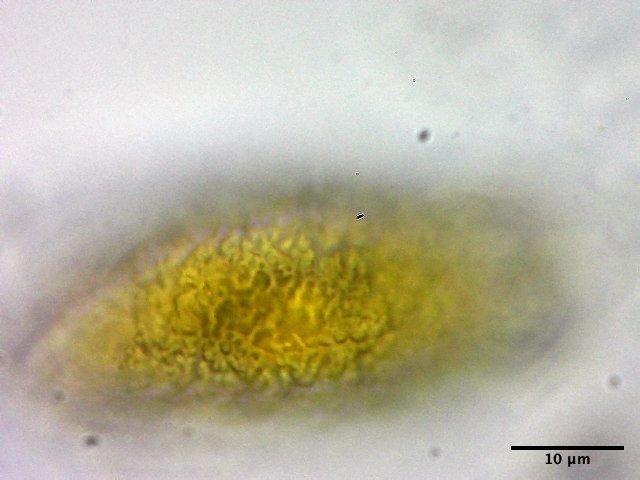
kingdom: Fungi
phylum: Basidiomycota
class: Pucciniomycetes
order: Pucciniales
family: Pucciniaceae
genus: Eriosporangium
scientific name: Eriosporangium evadens
